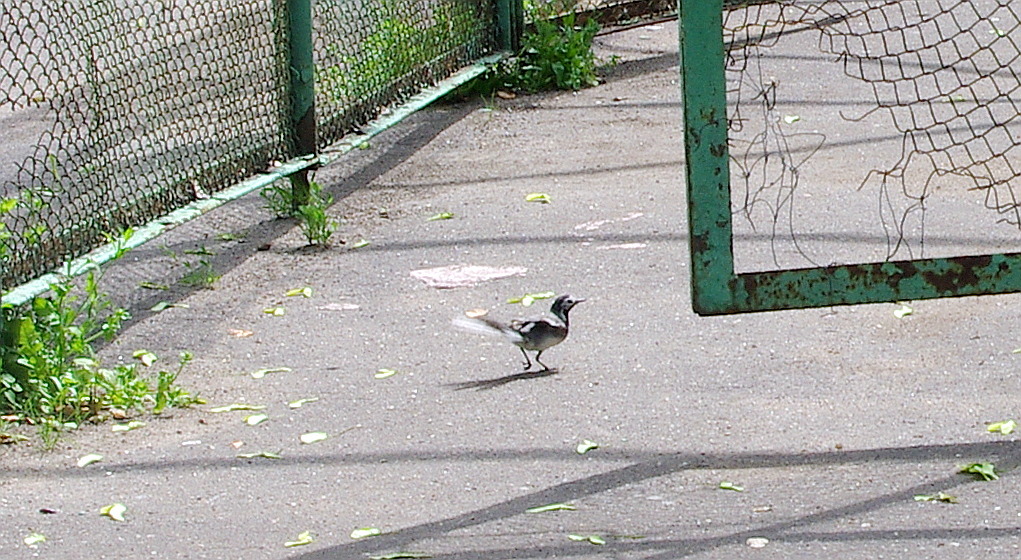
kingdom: Animalia
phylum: Chordata
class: Aves
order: Passeriformes
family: Motacillidae
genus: Motacilla
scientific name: Motacilla alba
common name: White wagtail
